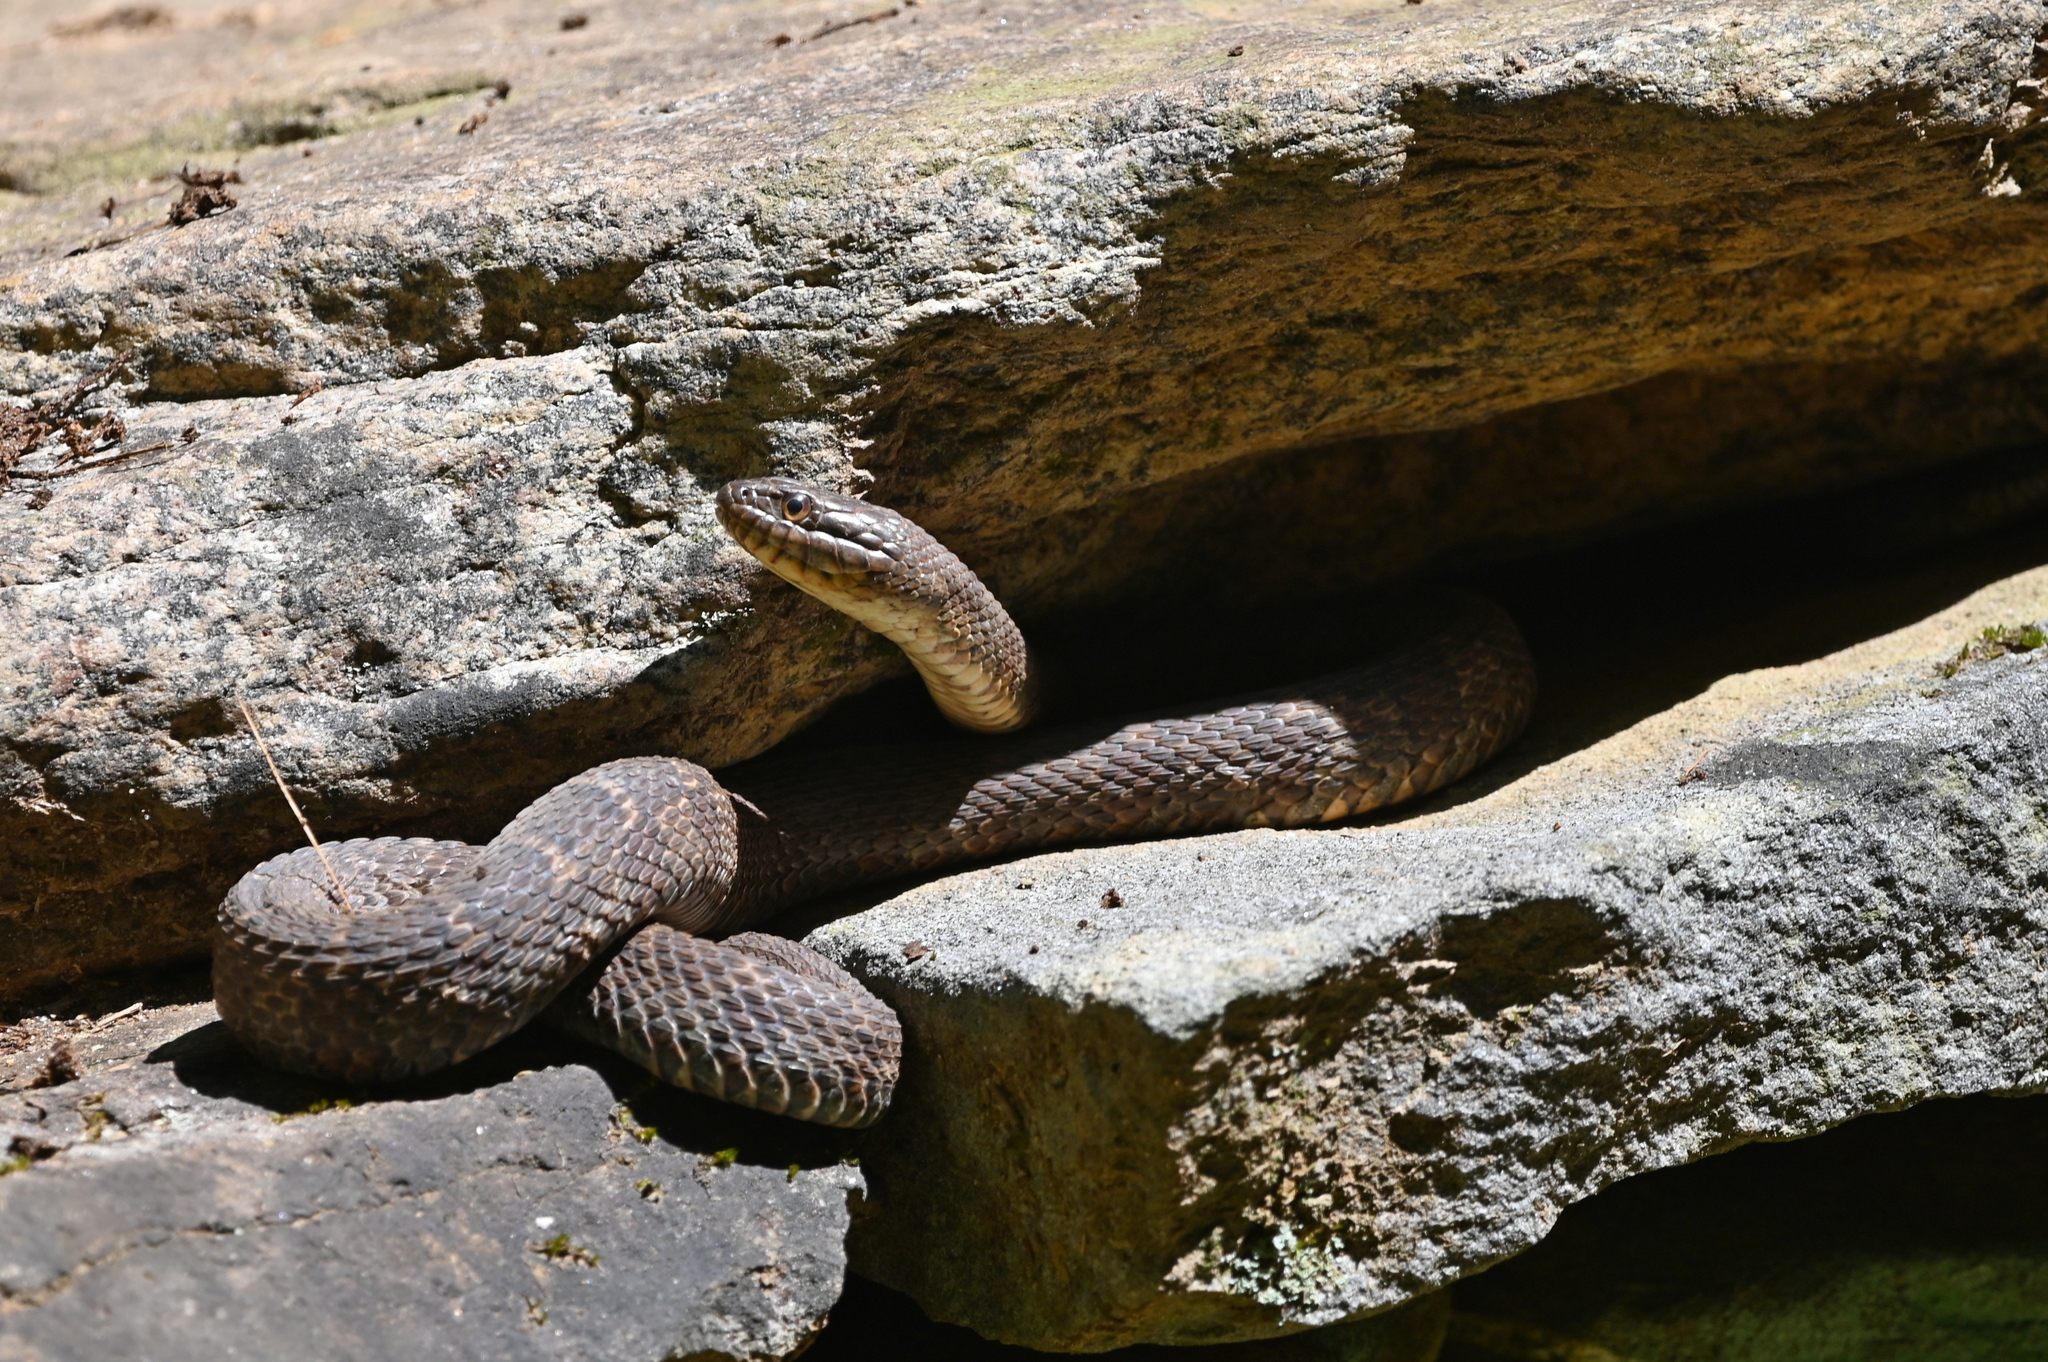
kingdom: Animalia
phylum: Chordata
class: Squamata
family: Colubridae
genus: Nerodia
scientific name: Nerodia sipedon
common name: Northern water snake
